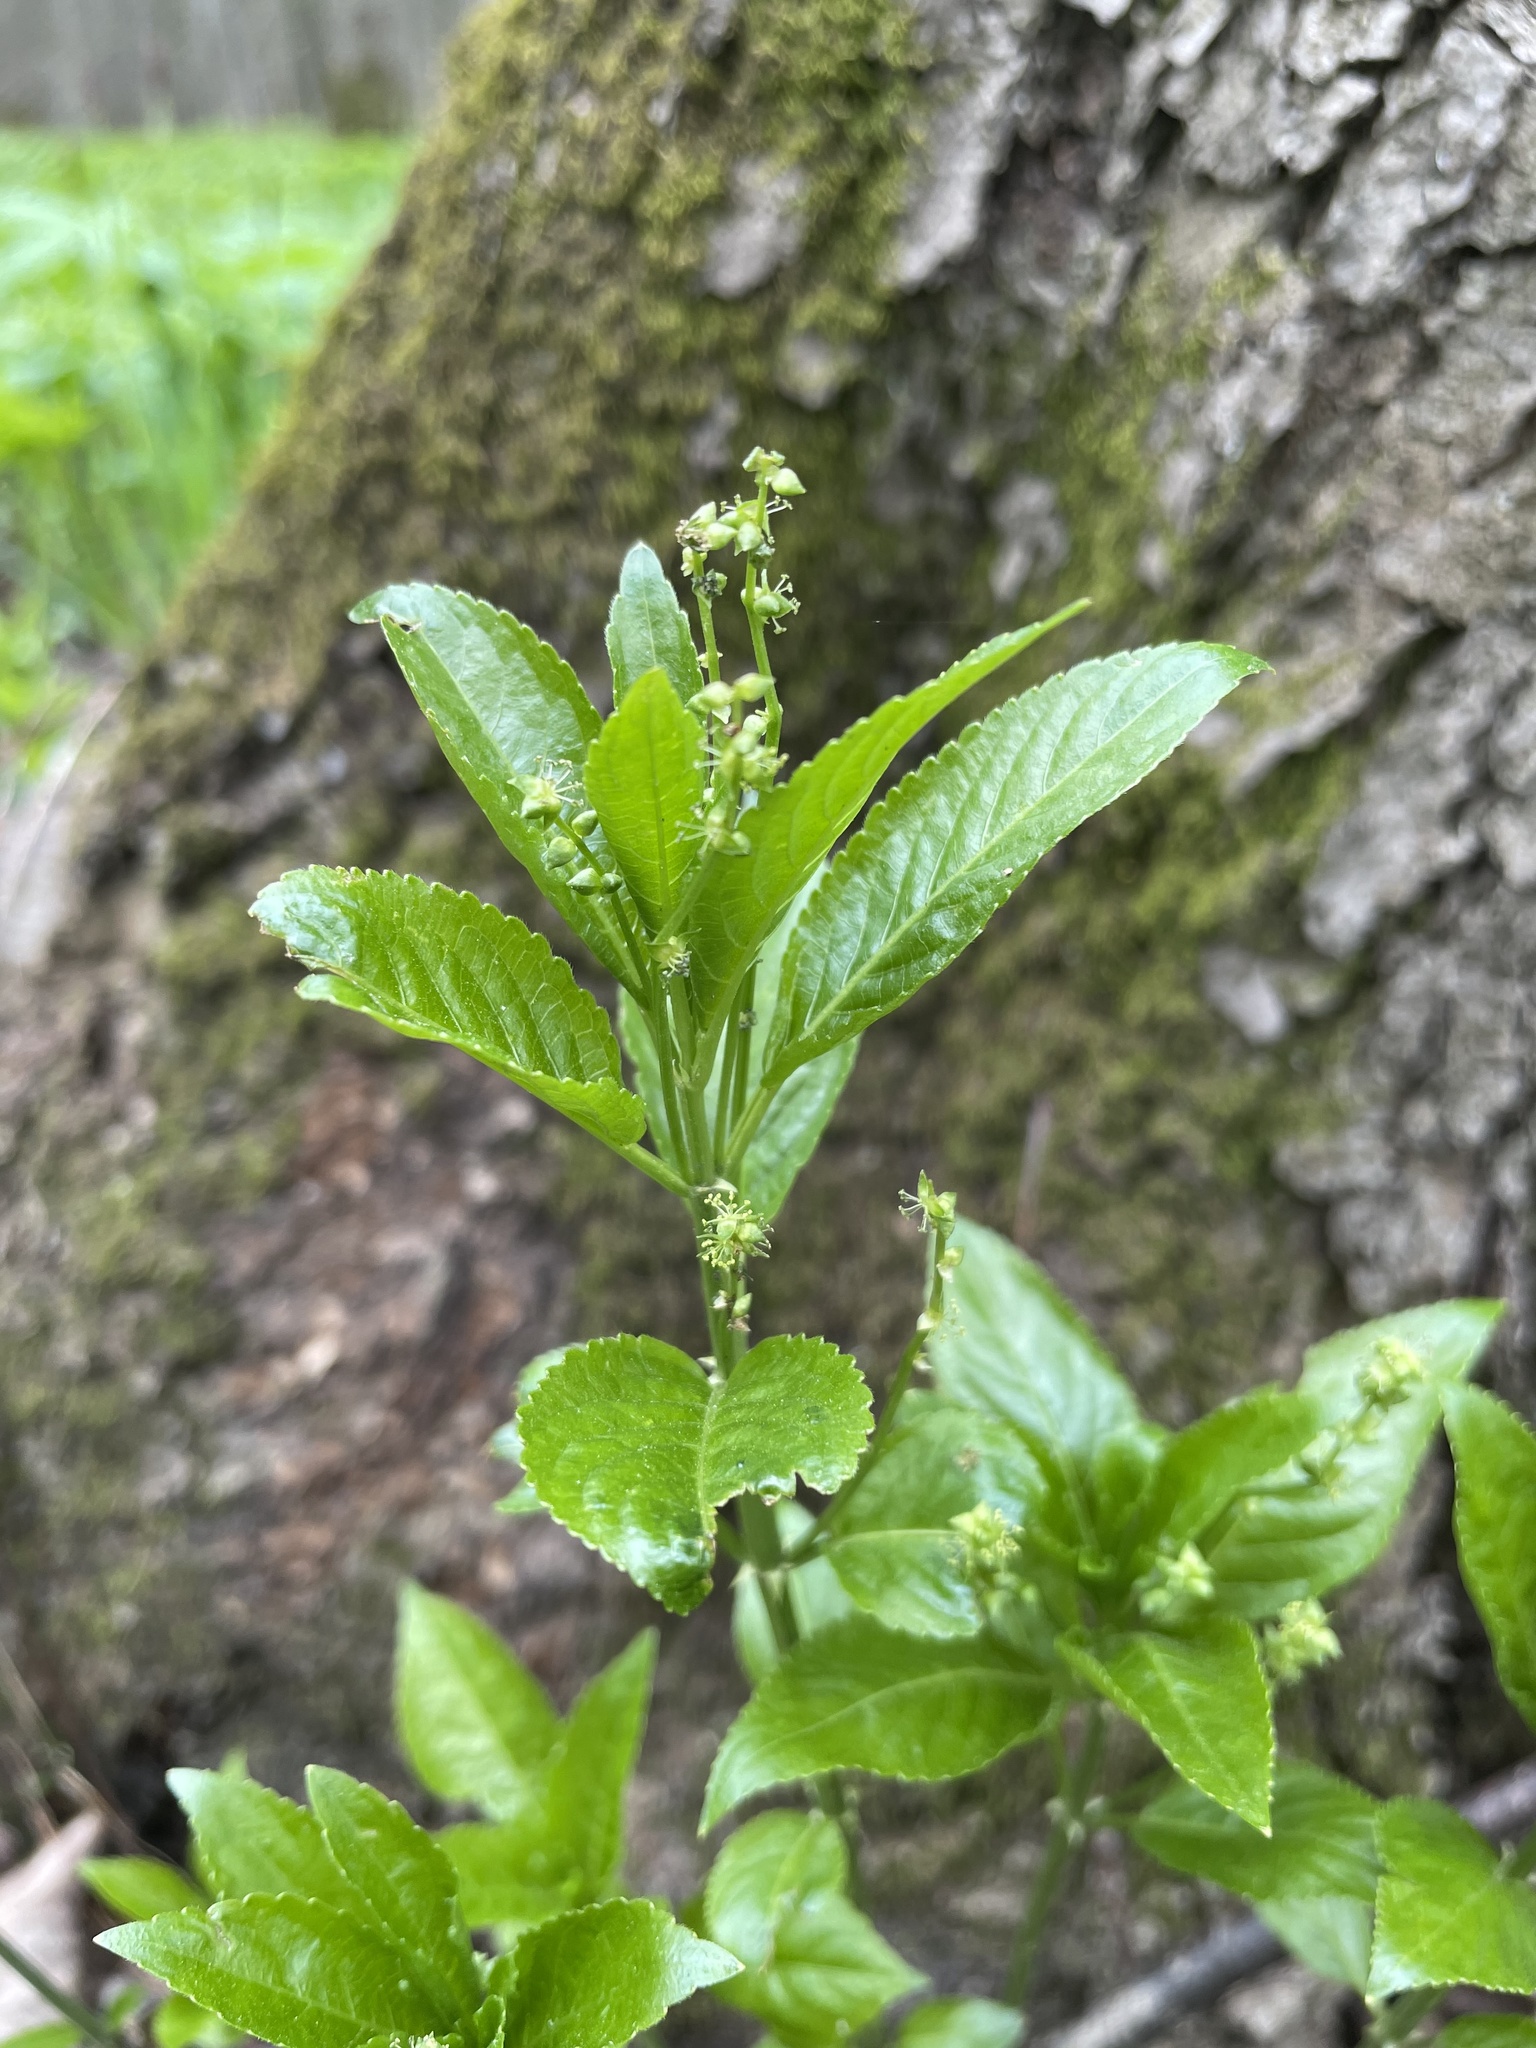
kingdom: Plantae
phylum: Tracheophyta
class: Magnoliopsida
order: Malpighiales
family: Euphorbiaceae
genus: Mercurialis
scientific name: Mercurialis perennis
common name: Dog mercury
